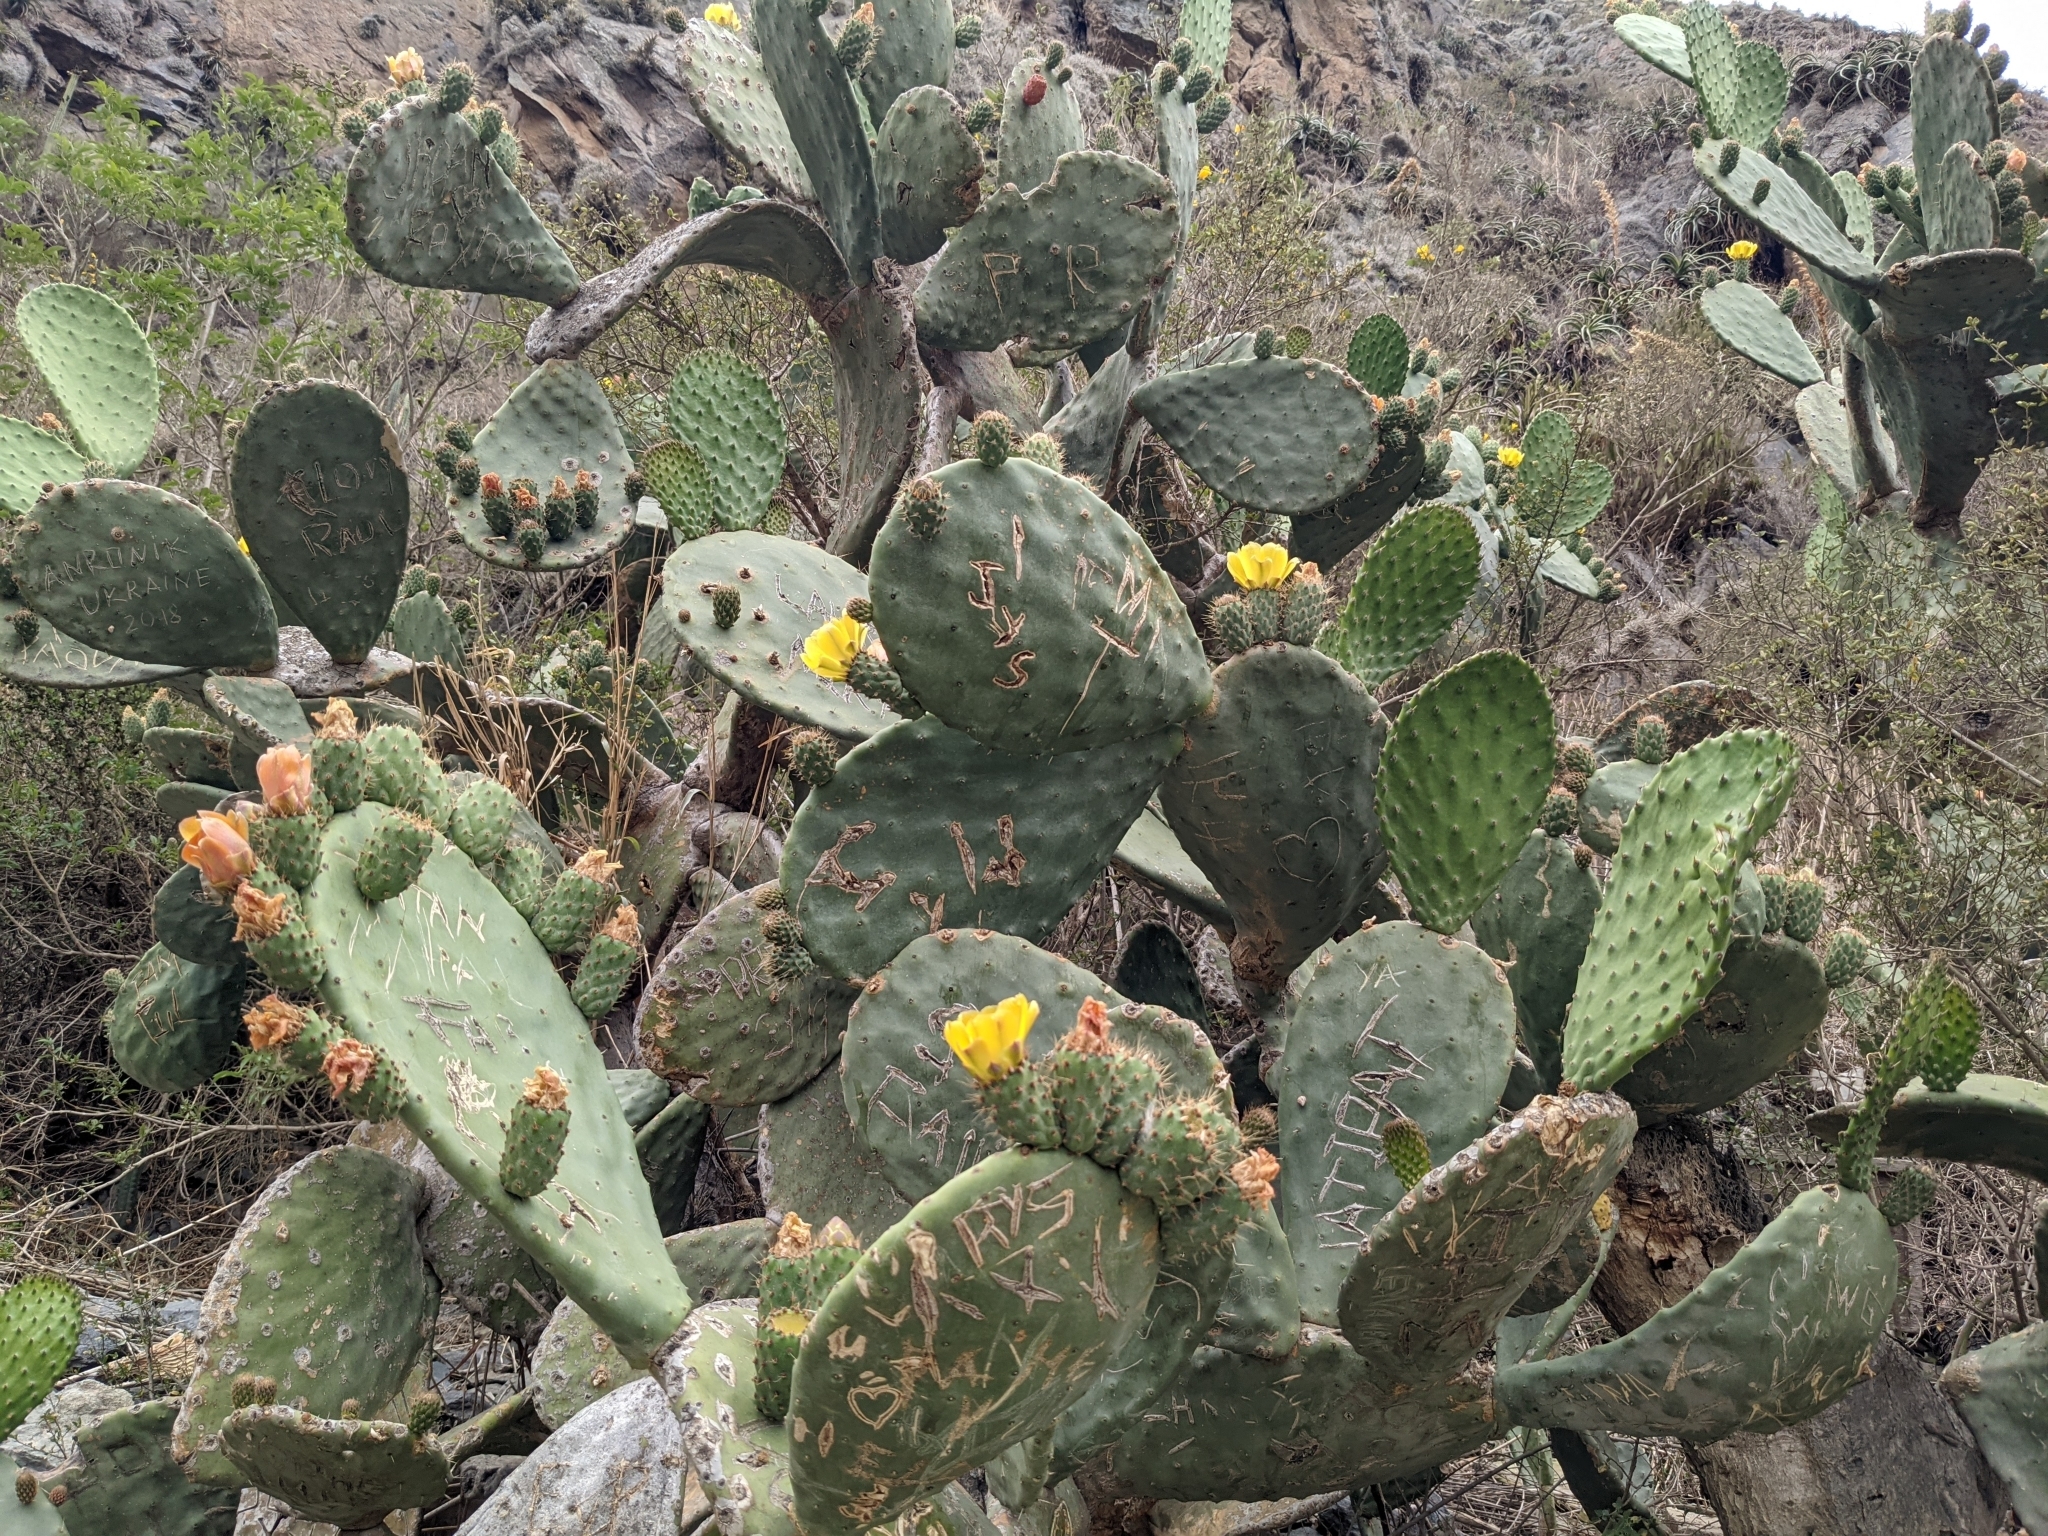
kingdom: Plantae
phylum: Tracheophyta
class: Magnoliopsida
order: Caryophyllales
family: Cactaceae
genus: Opuntia
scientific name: Opuntia ficus-indica
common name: Barbary fig
